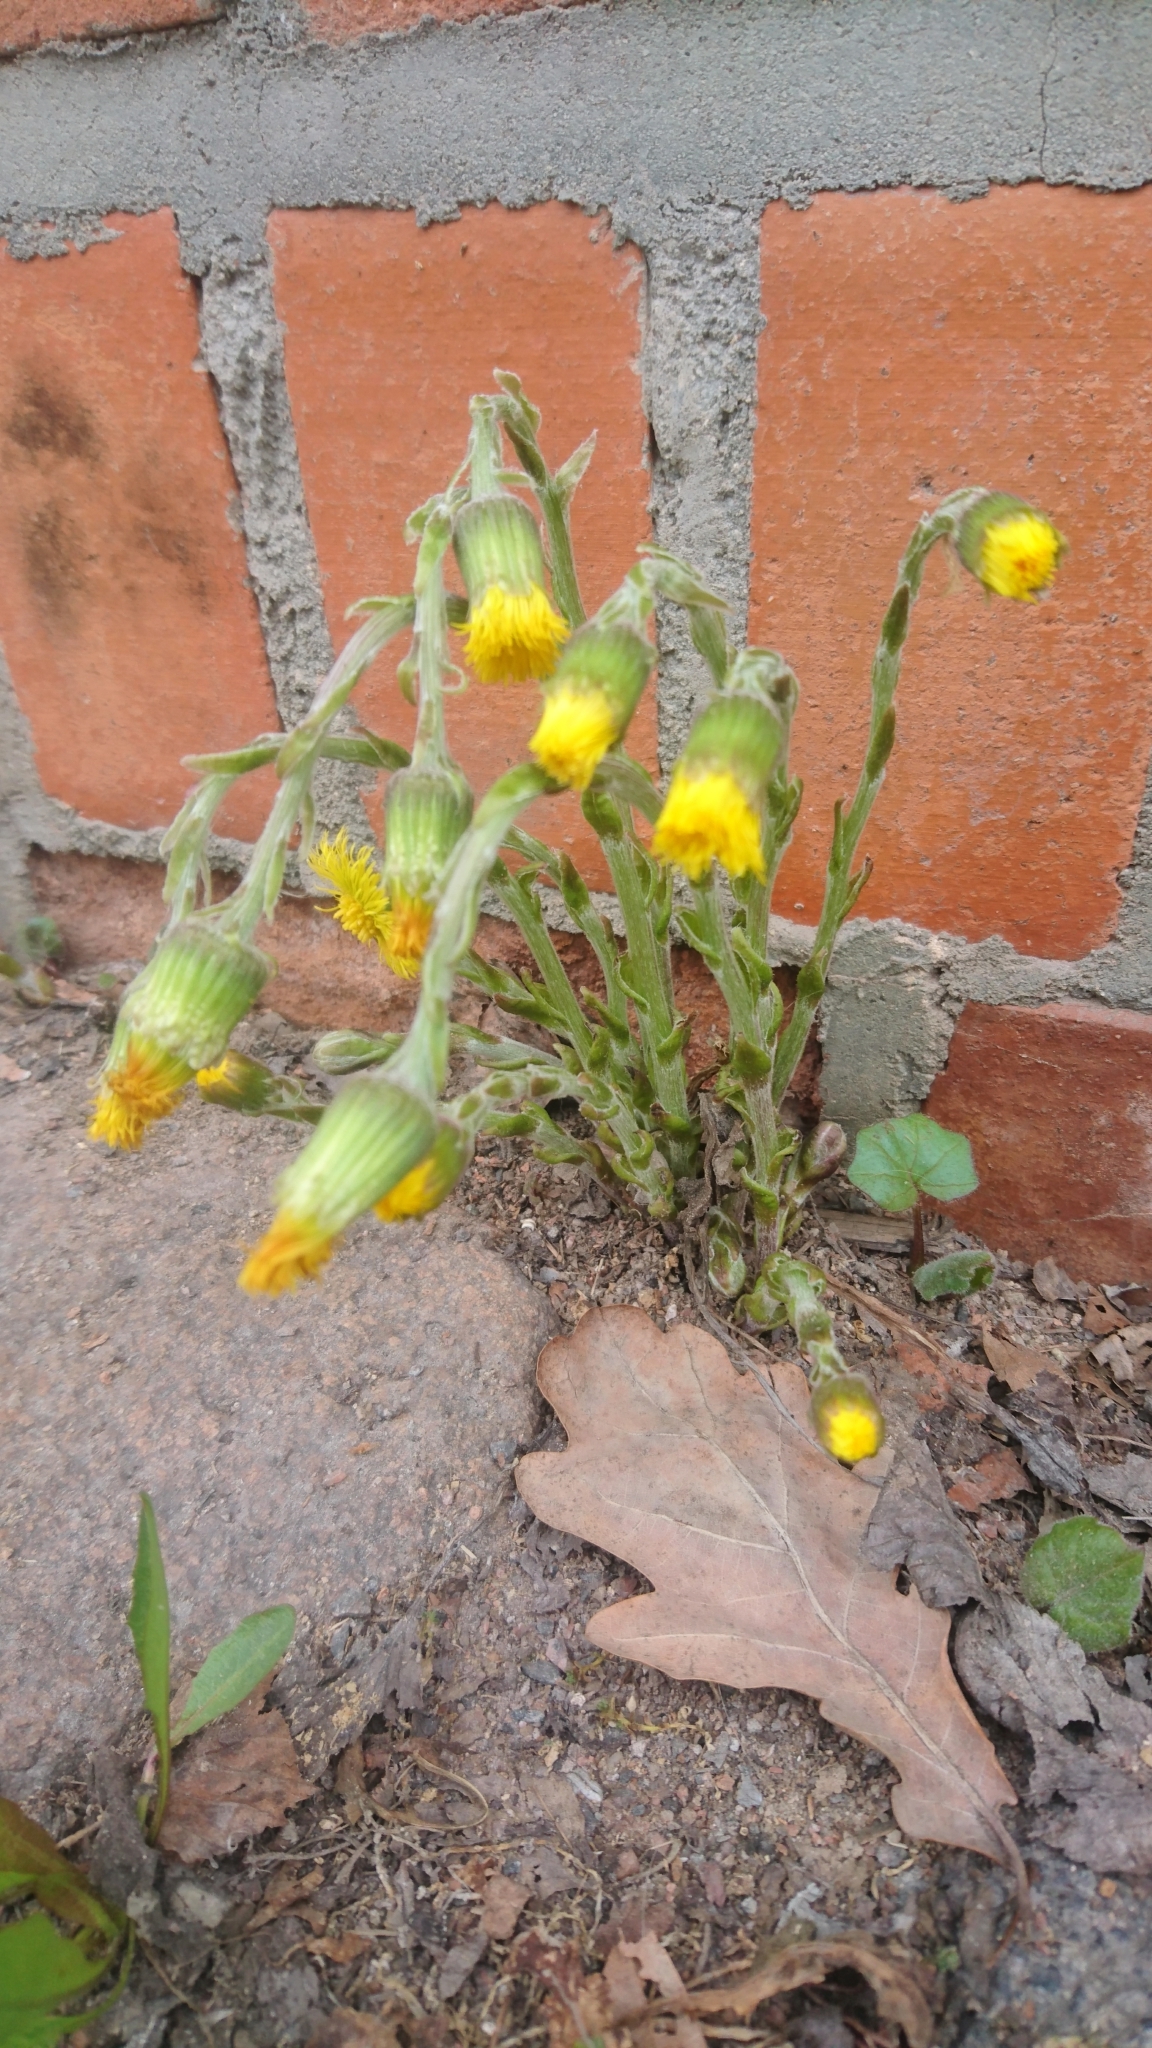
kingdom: Plantae
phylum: Tracheophyta
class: Magnoliopsida
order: Asterales
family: Asteraceae
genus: Tussilago
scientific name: Tussilago farfara
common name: Coltsfoot
